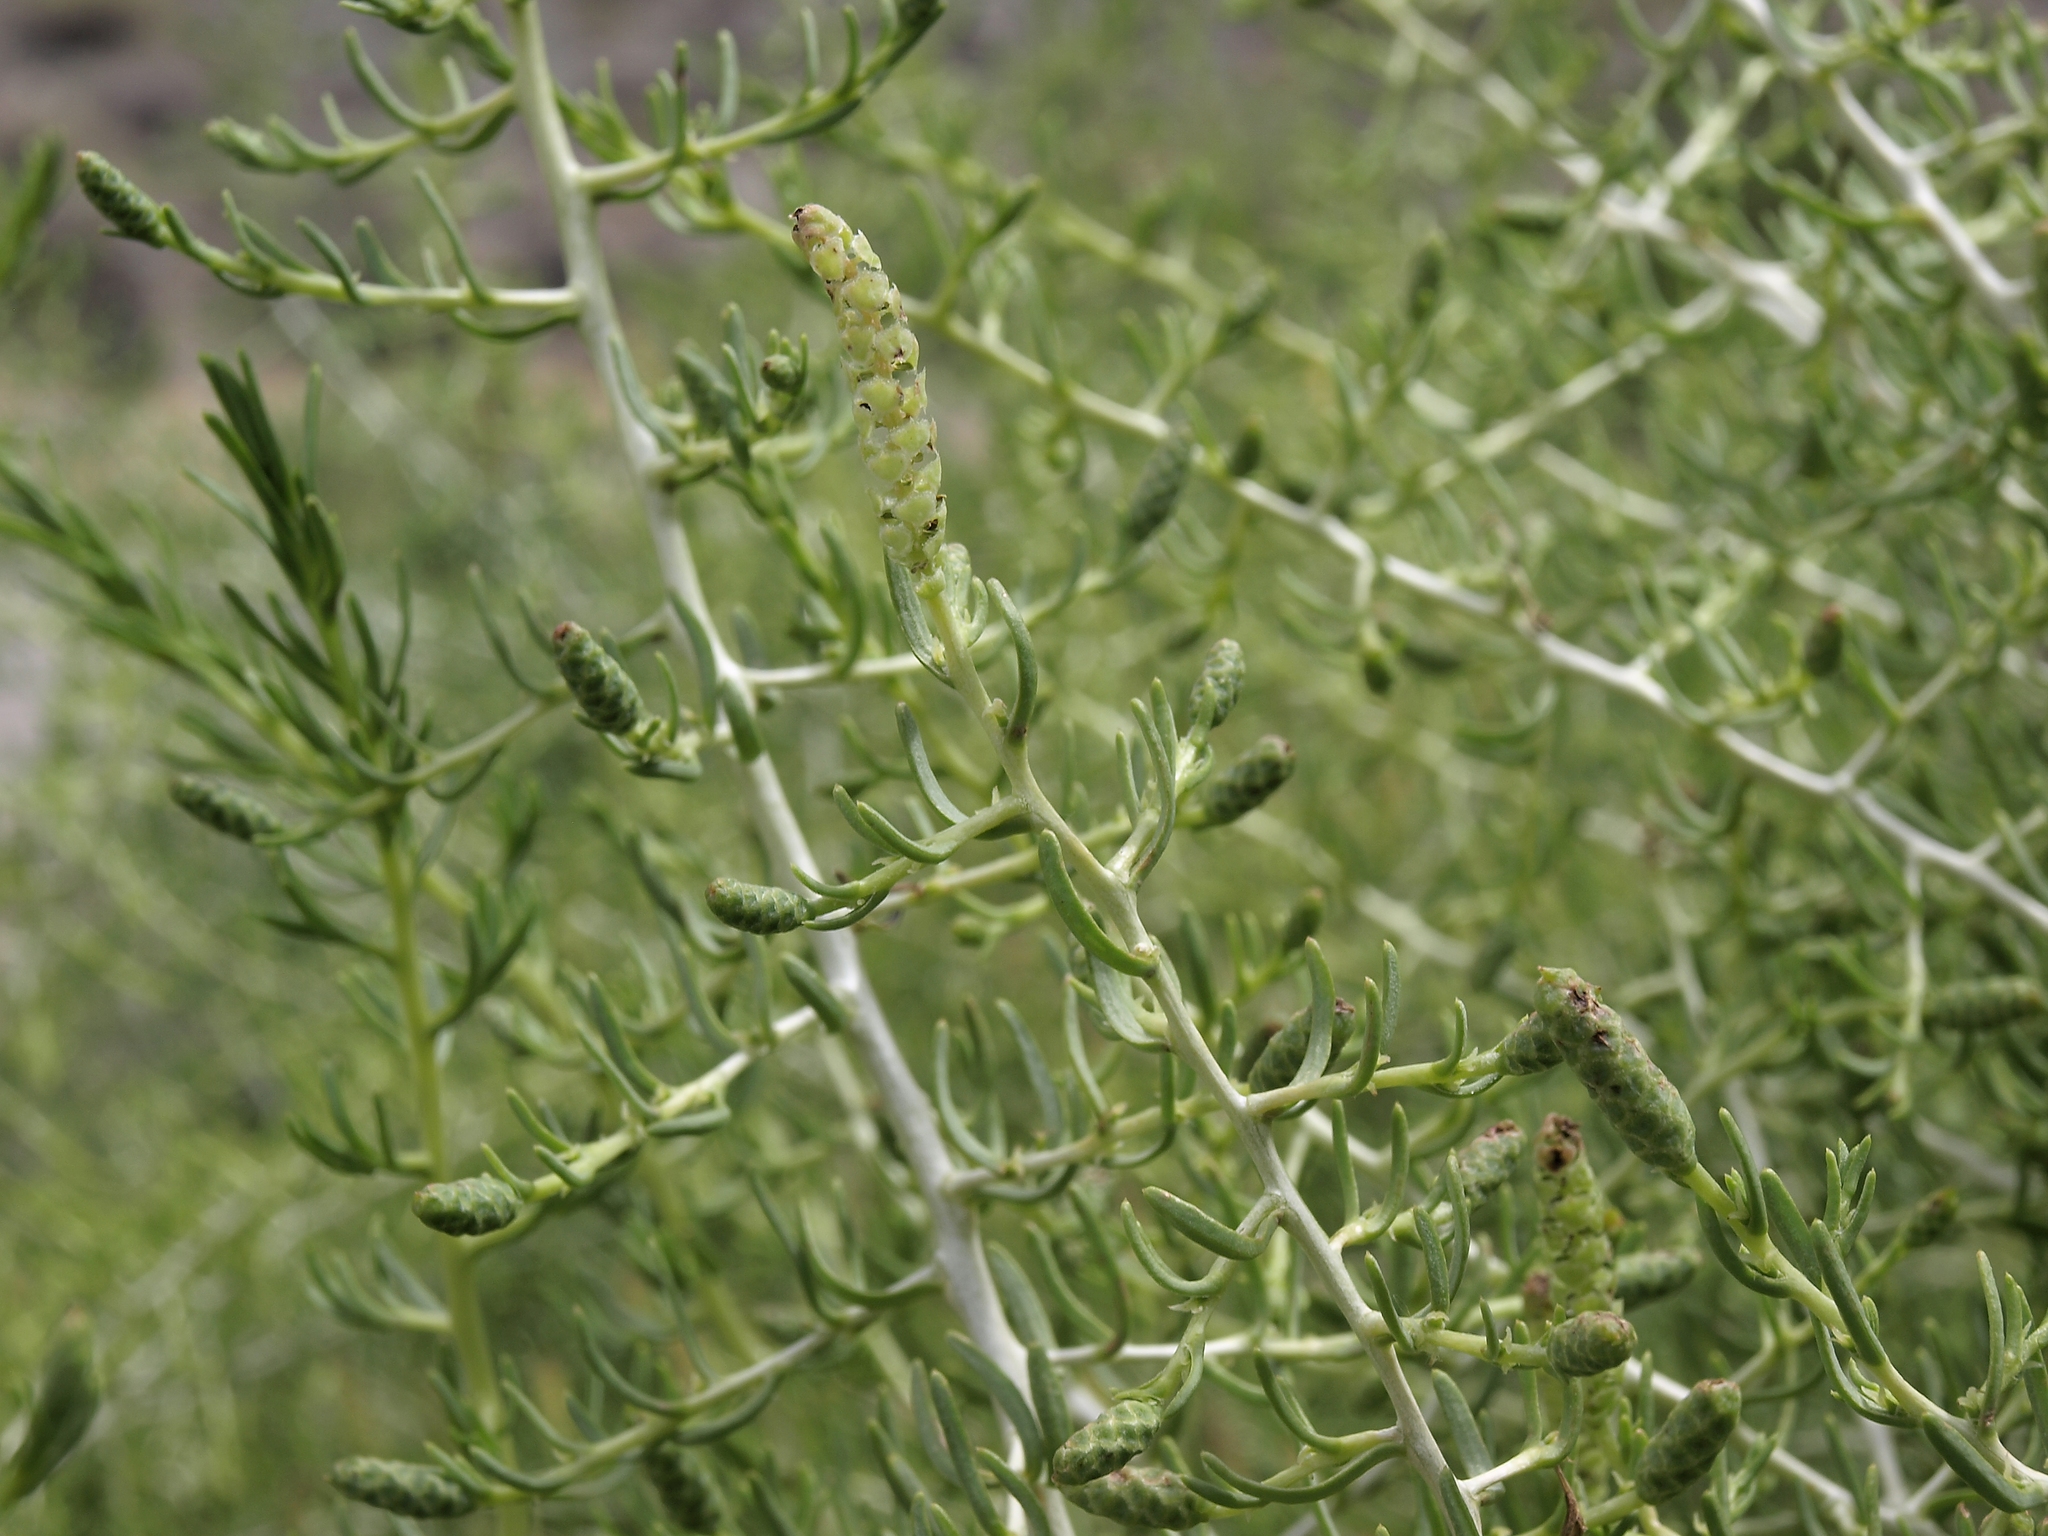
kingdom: Plantae
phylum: Tracheophyta
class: Magnoliopsida
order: Caryophyllales
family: Sarcobataceae
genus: Sarcobatus
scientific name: Sarcobatus vermiculatus
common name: Greasewood
